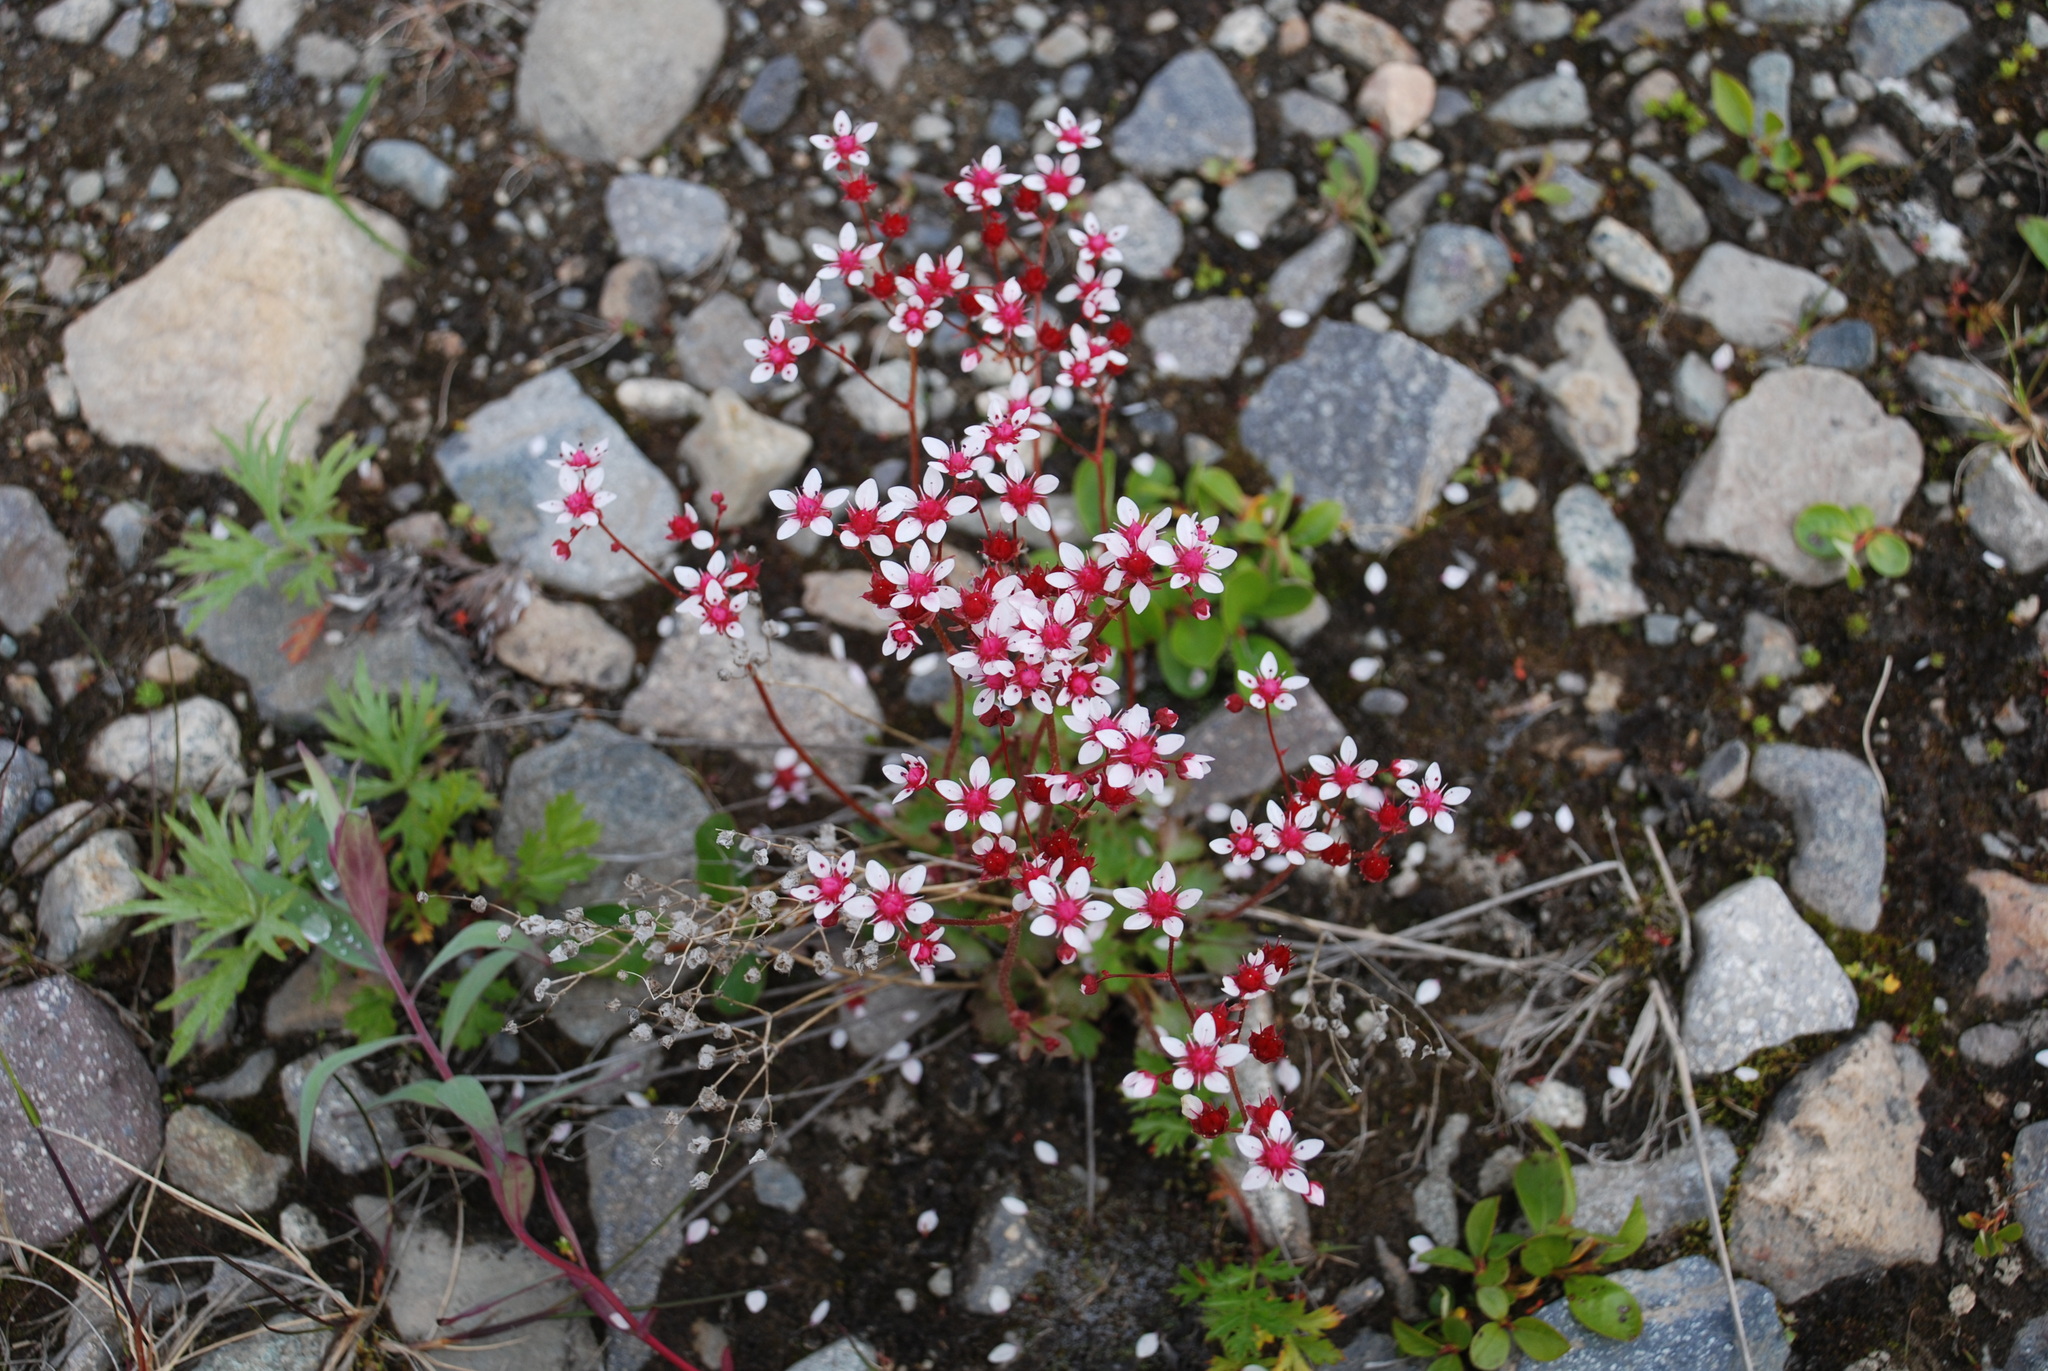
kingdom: Plantae
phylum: Tracheophyta
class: Magnoliopsida
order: Saxifragales
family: Saxifragaceae
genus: Micranthes
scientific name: Micranthes nudicaulis
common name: Nakedstem saxifrage
